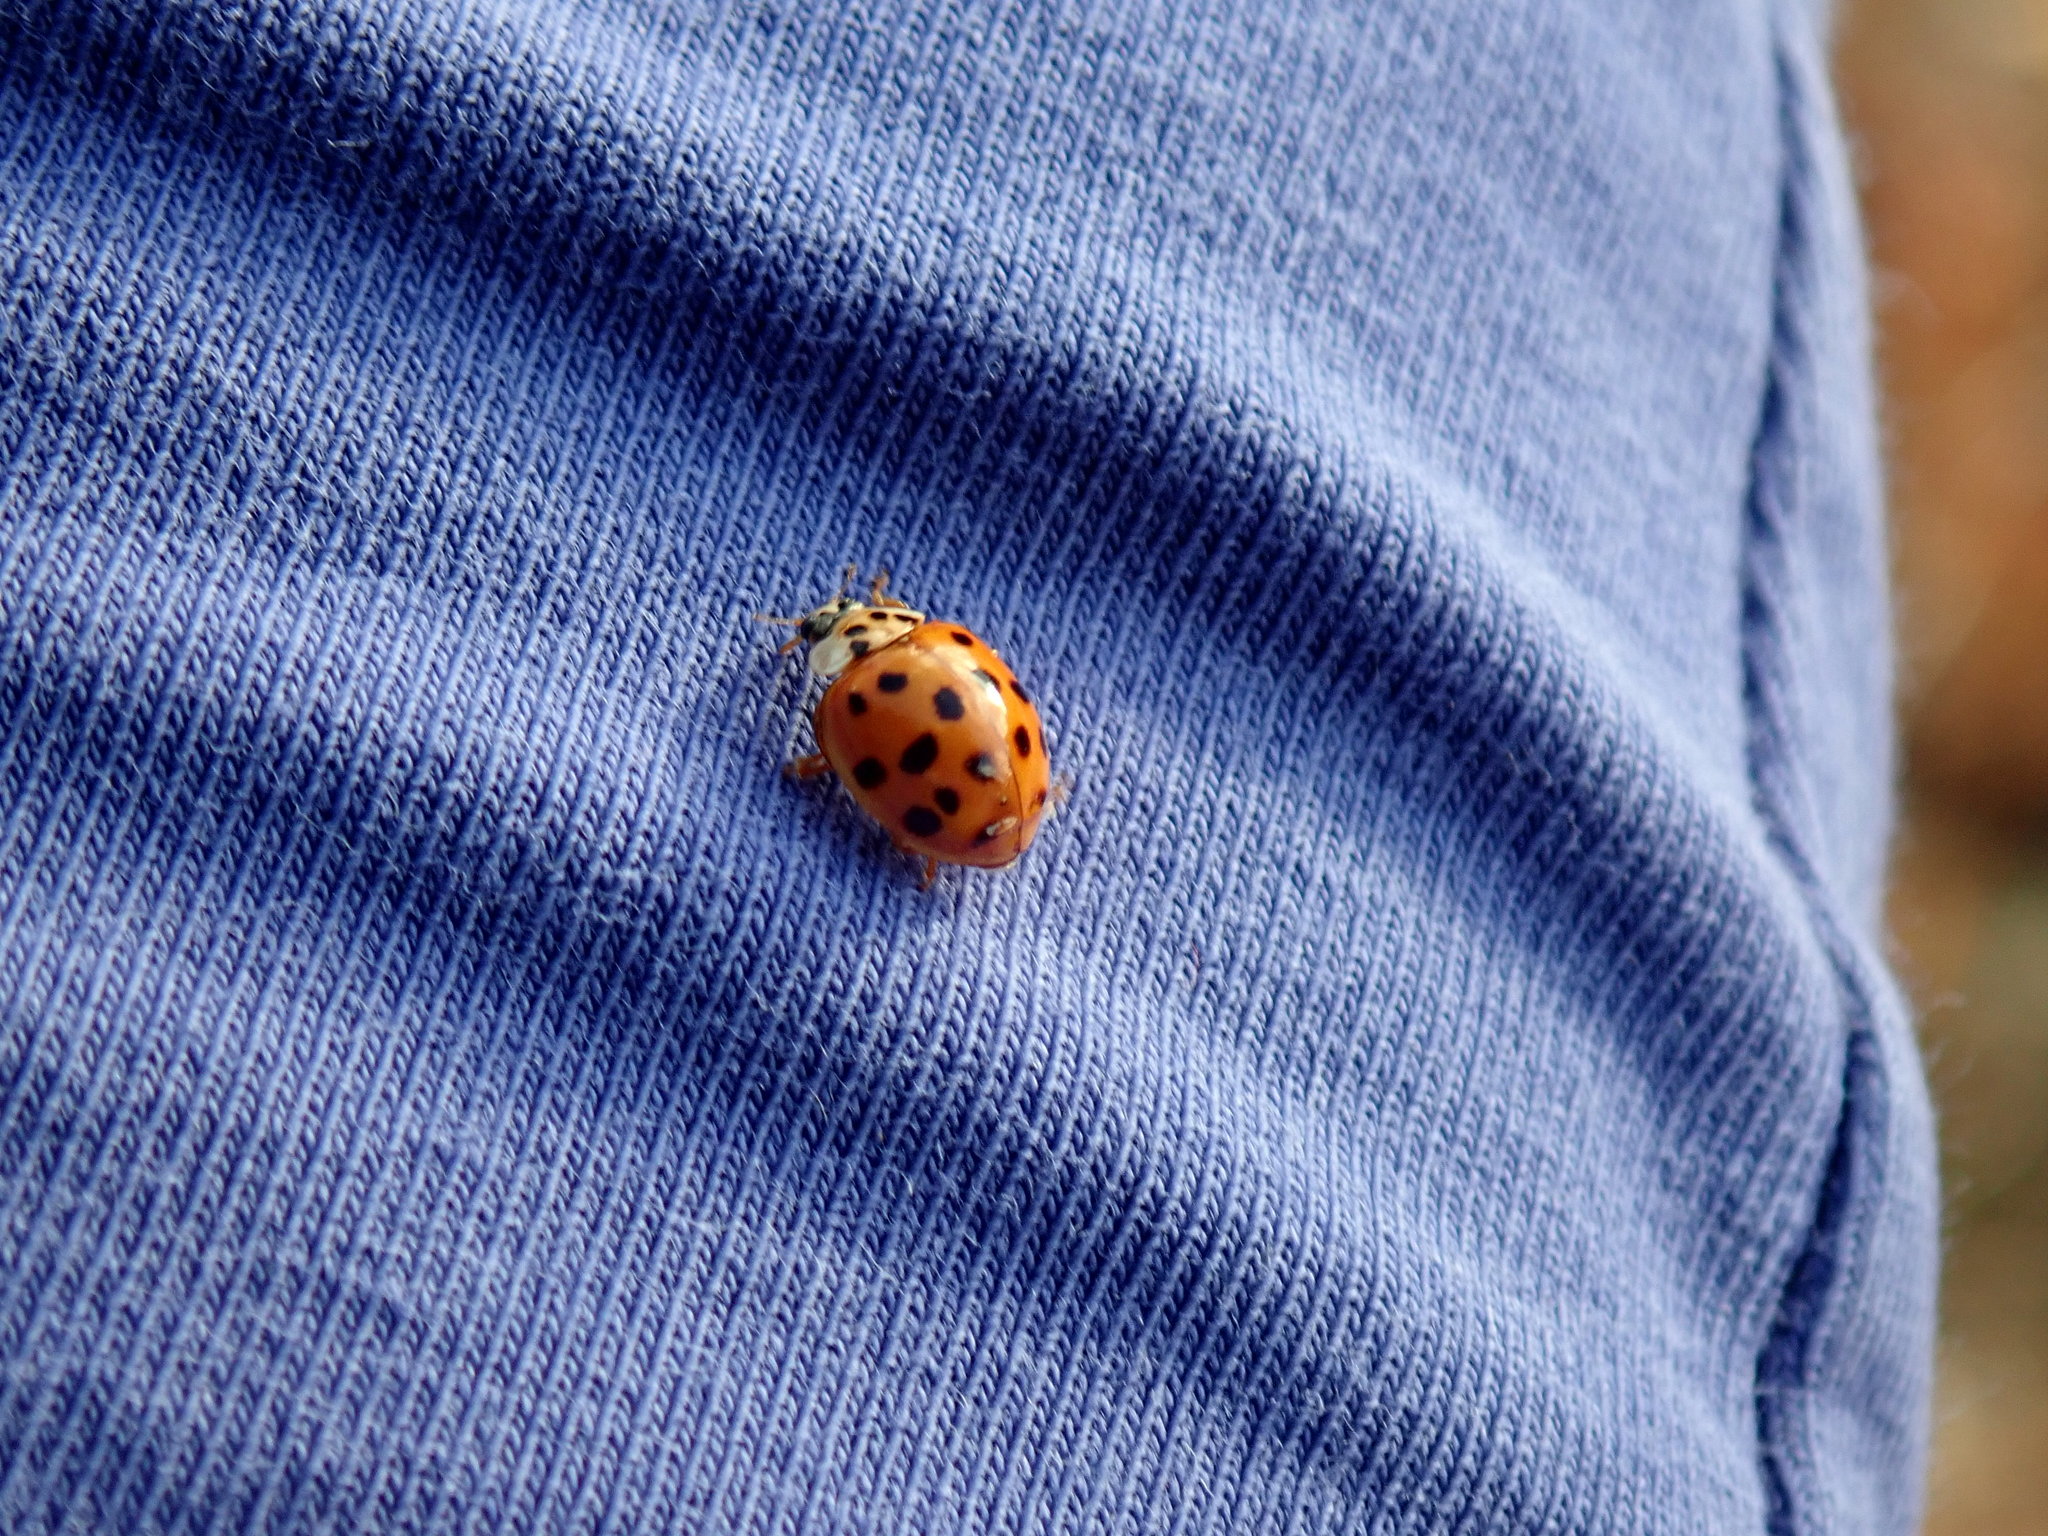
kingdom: Animalia
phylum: Arthropoda
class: Insecta
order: Coleoptera
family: Coccinellidae
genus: Harmonia
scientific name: Harmonia axyridis
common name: Harlequin ladybird
